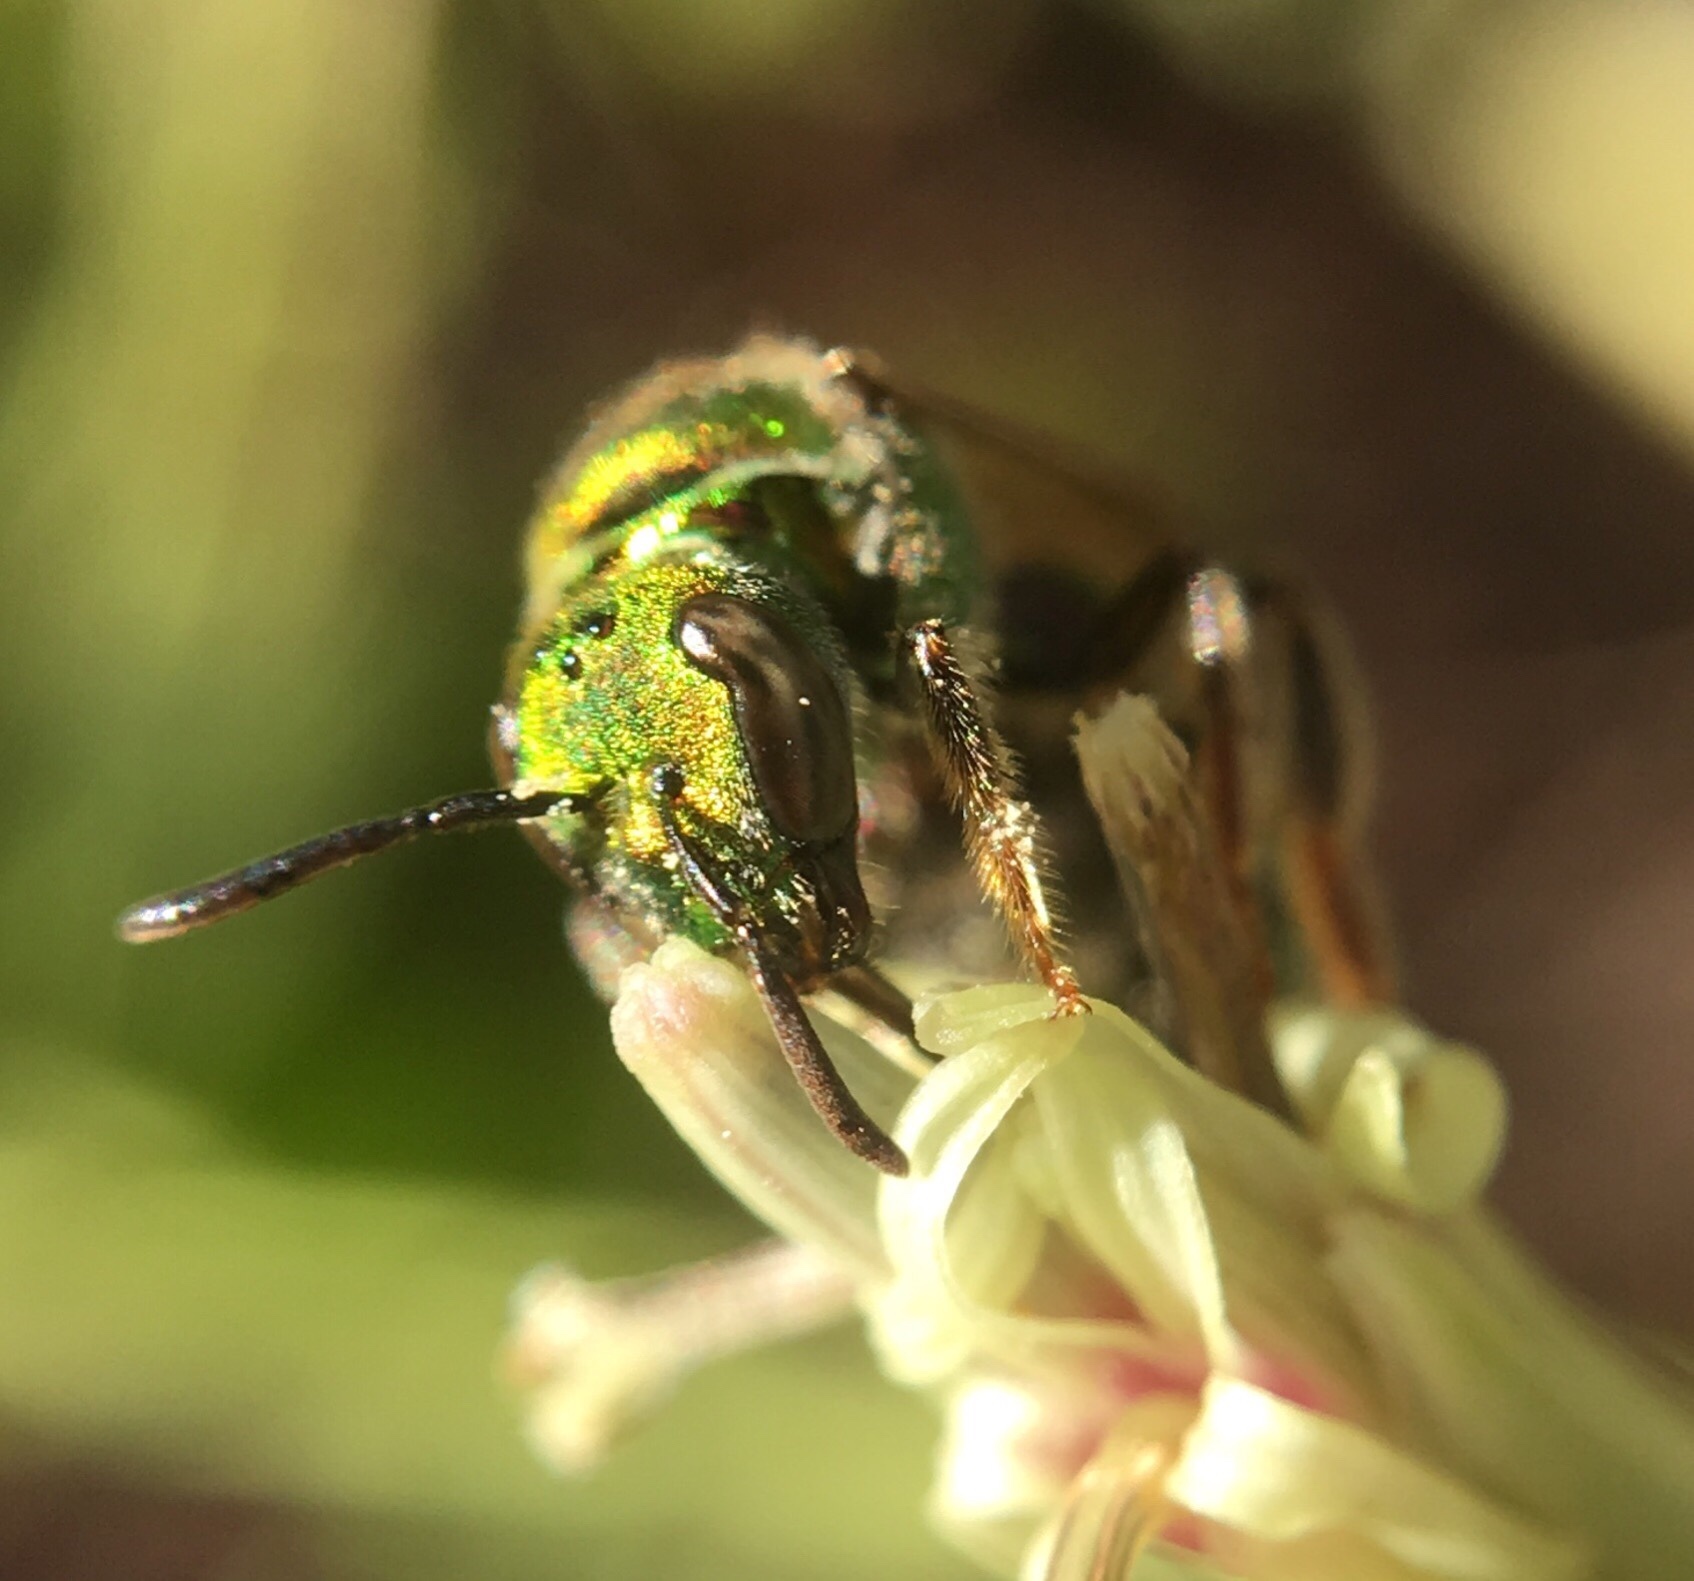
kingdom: Animalia
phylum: Arthropoda
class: Insecta
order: Hymenoptera
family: Halictidae
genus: Augochlora
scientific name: Augochlora pura
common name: Pure green sweat bee
